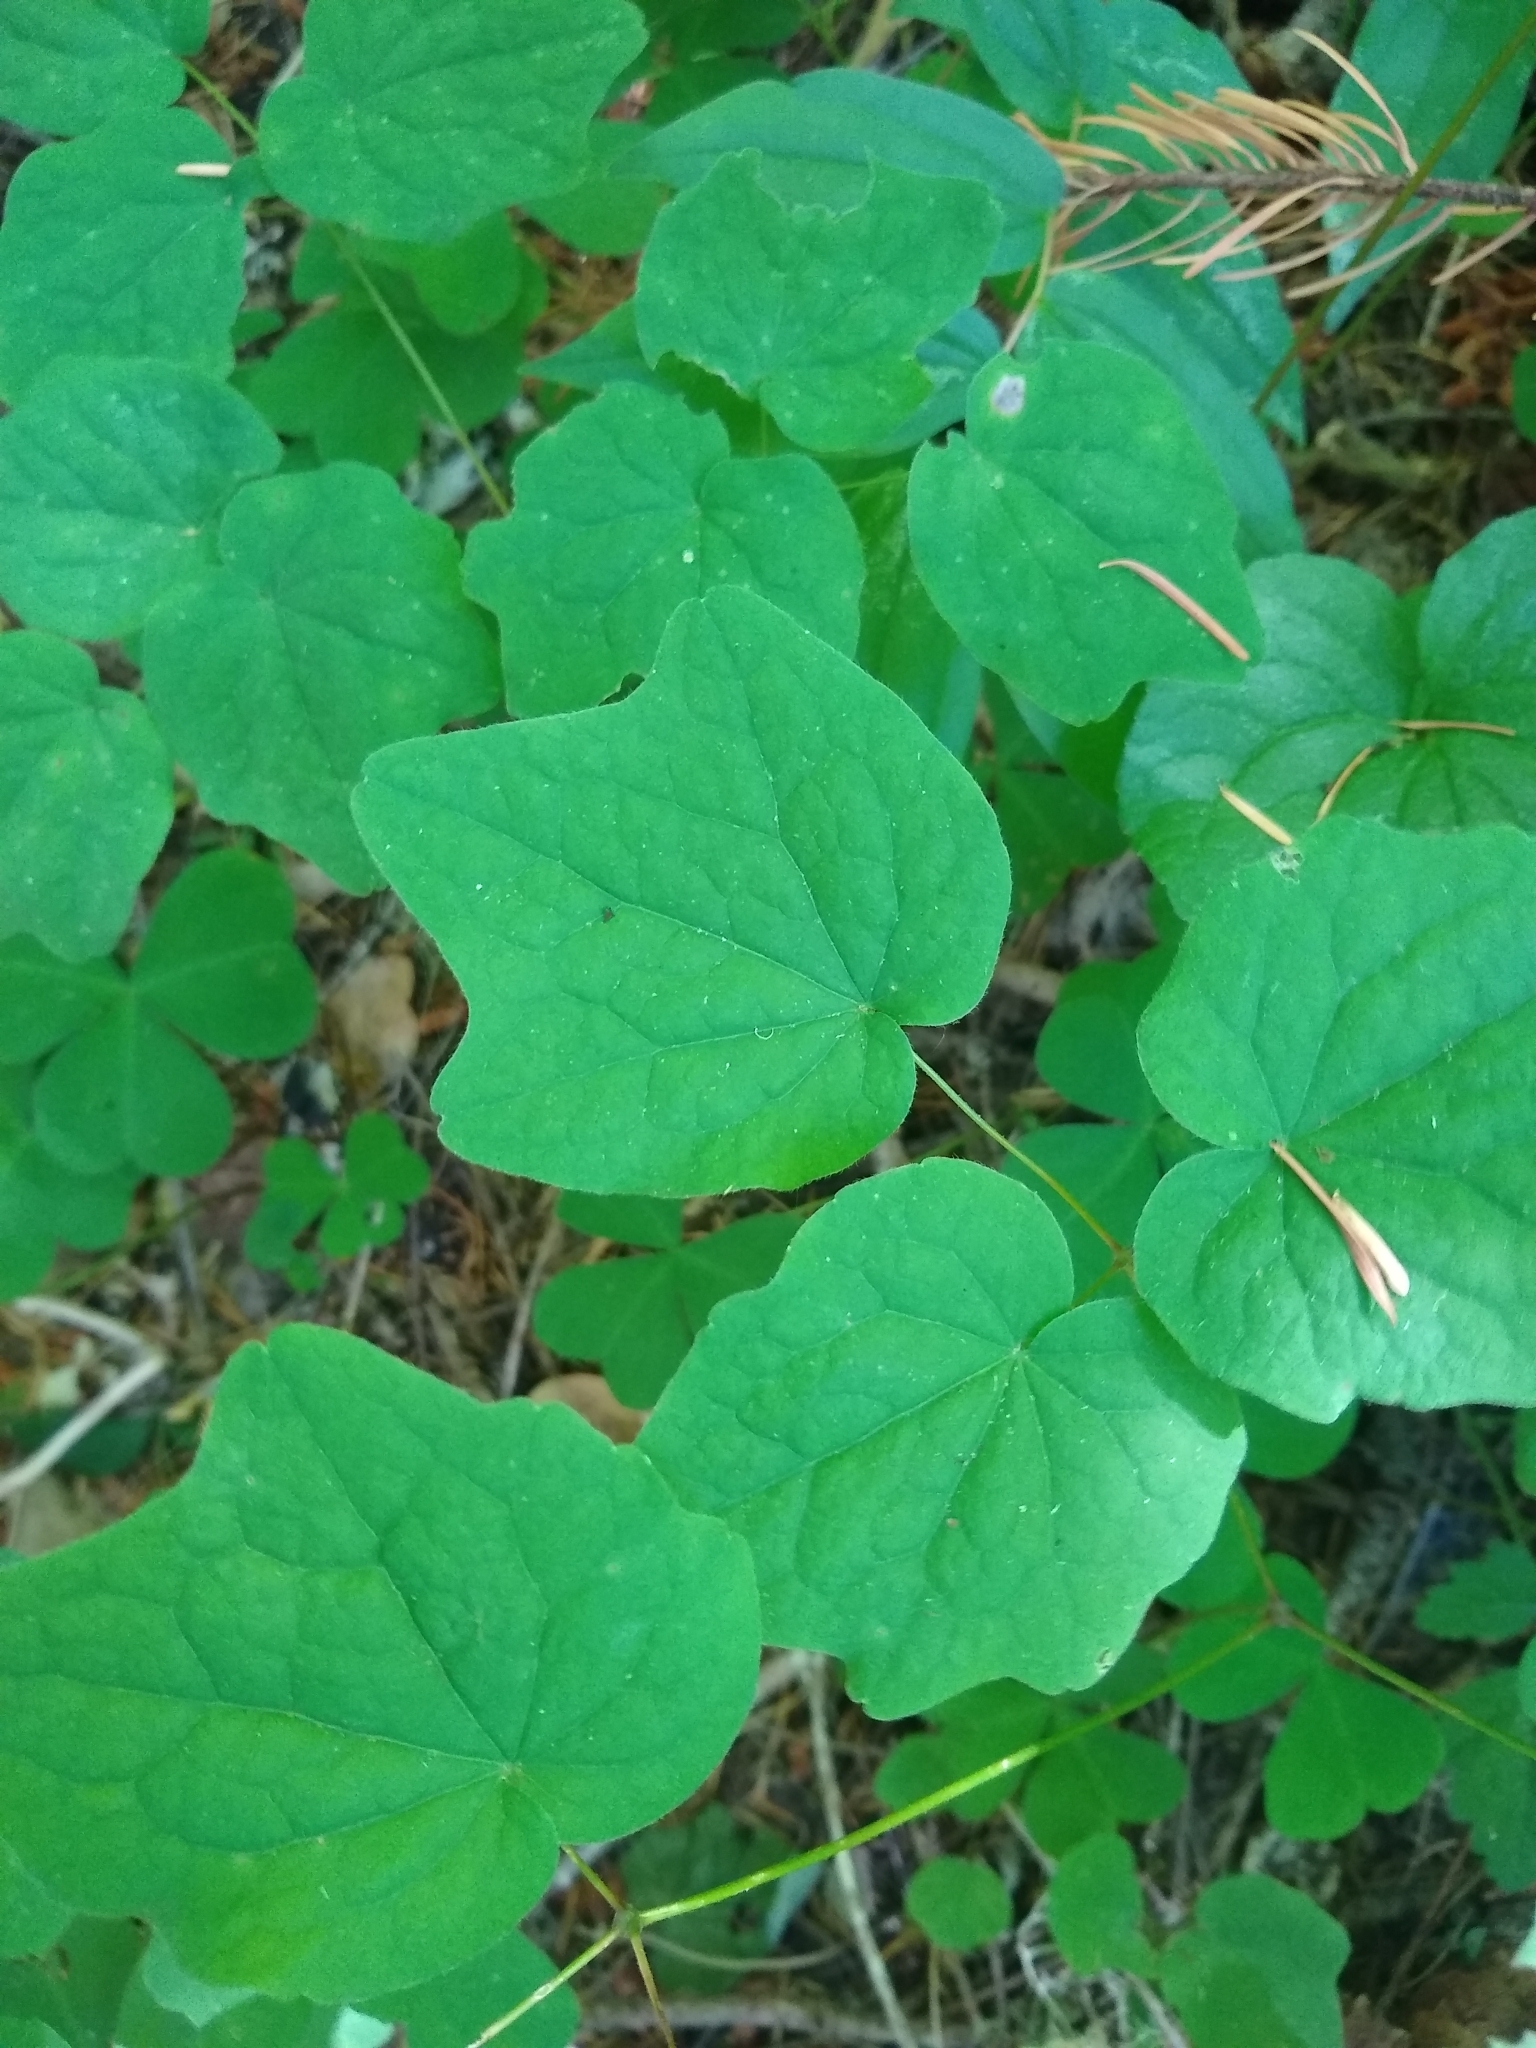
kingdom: Plantae
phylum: Tracheophyta
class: Magnoliopsida
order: Ranunculales
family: Berberidaceae
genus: Vancouveria
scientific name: Vancouveria hexandra
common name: Northern inside-out-flower
